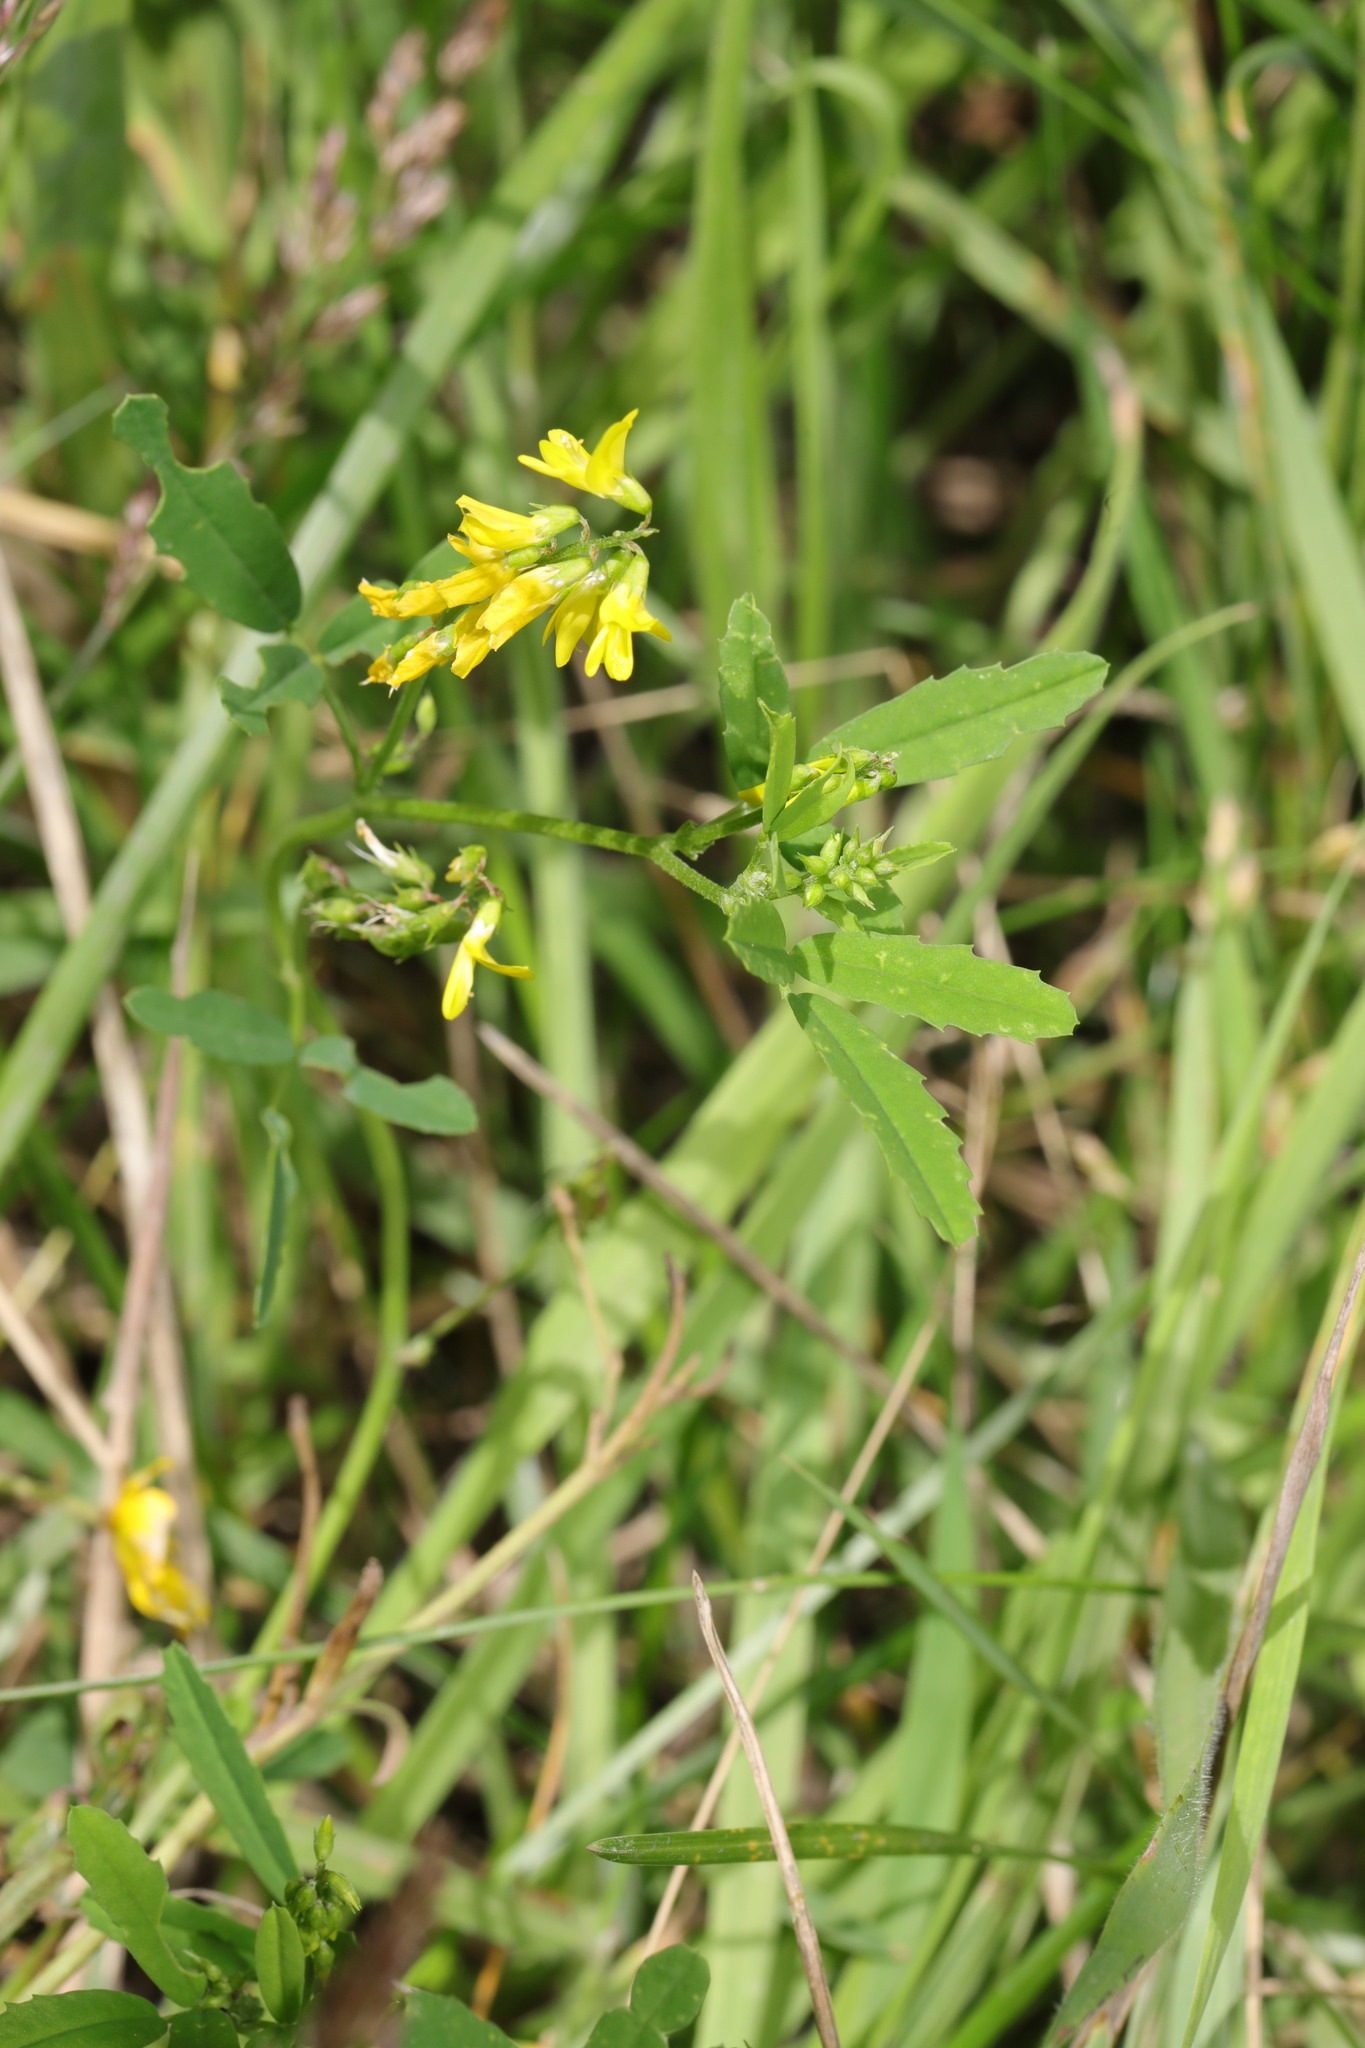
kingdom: Plantae
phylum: Tracheophyta
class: Magnoliopsida
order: Fabales
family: Fabaceae
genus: Melilotus
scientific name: Melilotus officinalis
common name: Sweetclover
